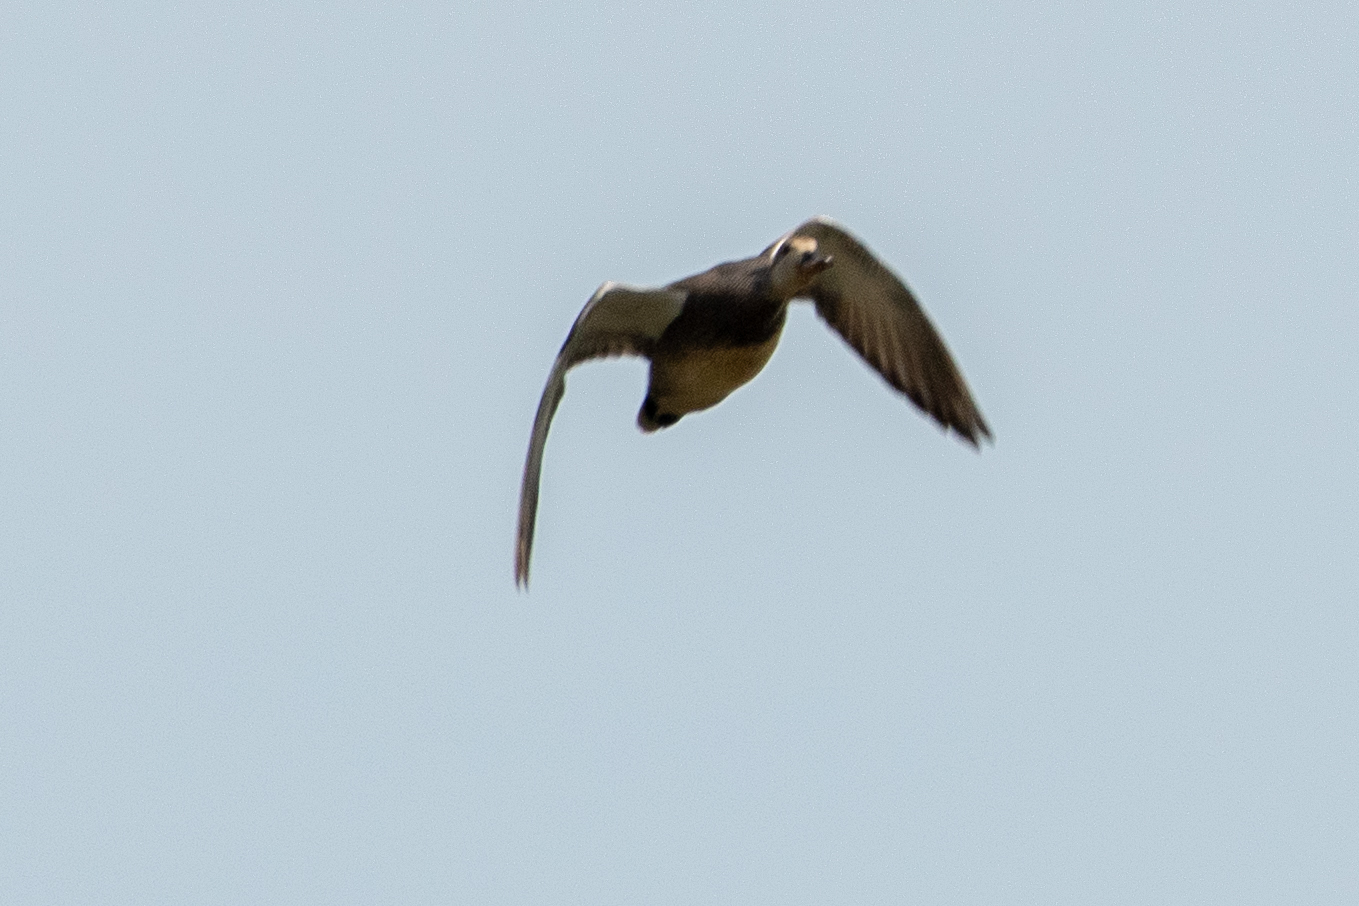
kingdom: Animalia
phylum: Chordata
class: Aves
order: Anseriformes
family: Anatidae
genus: Mareca
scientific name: Mareca strepera
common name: Gadwall
